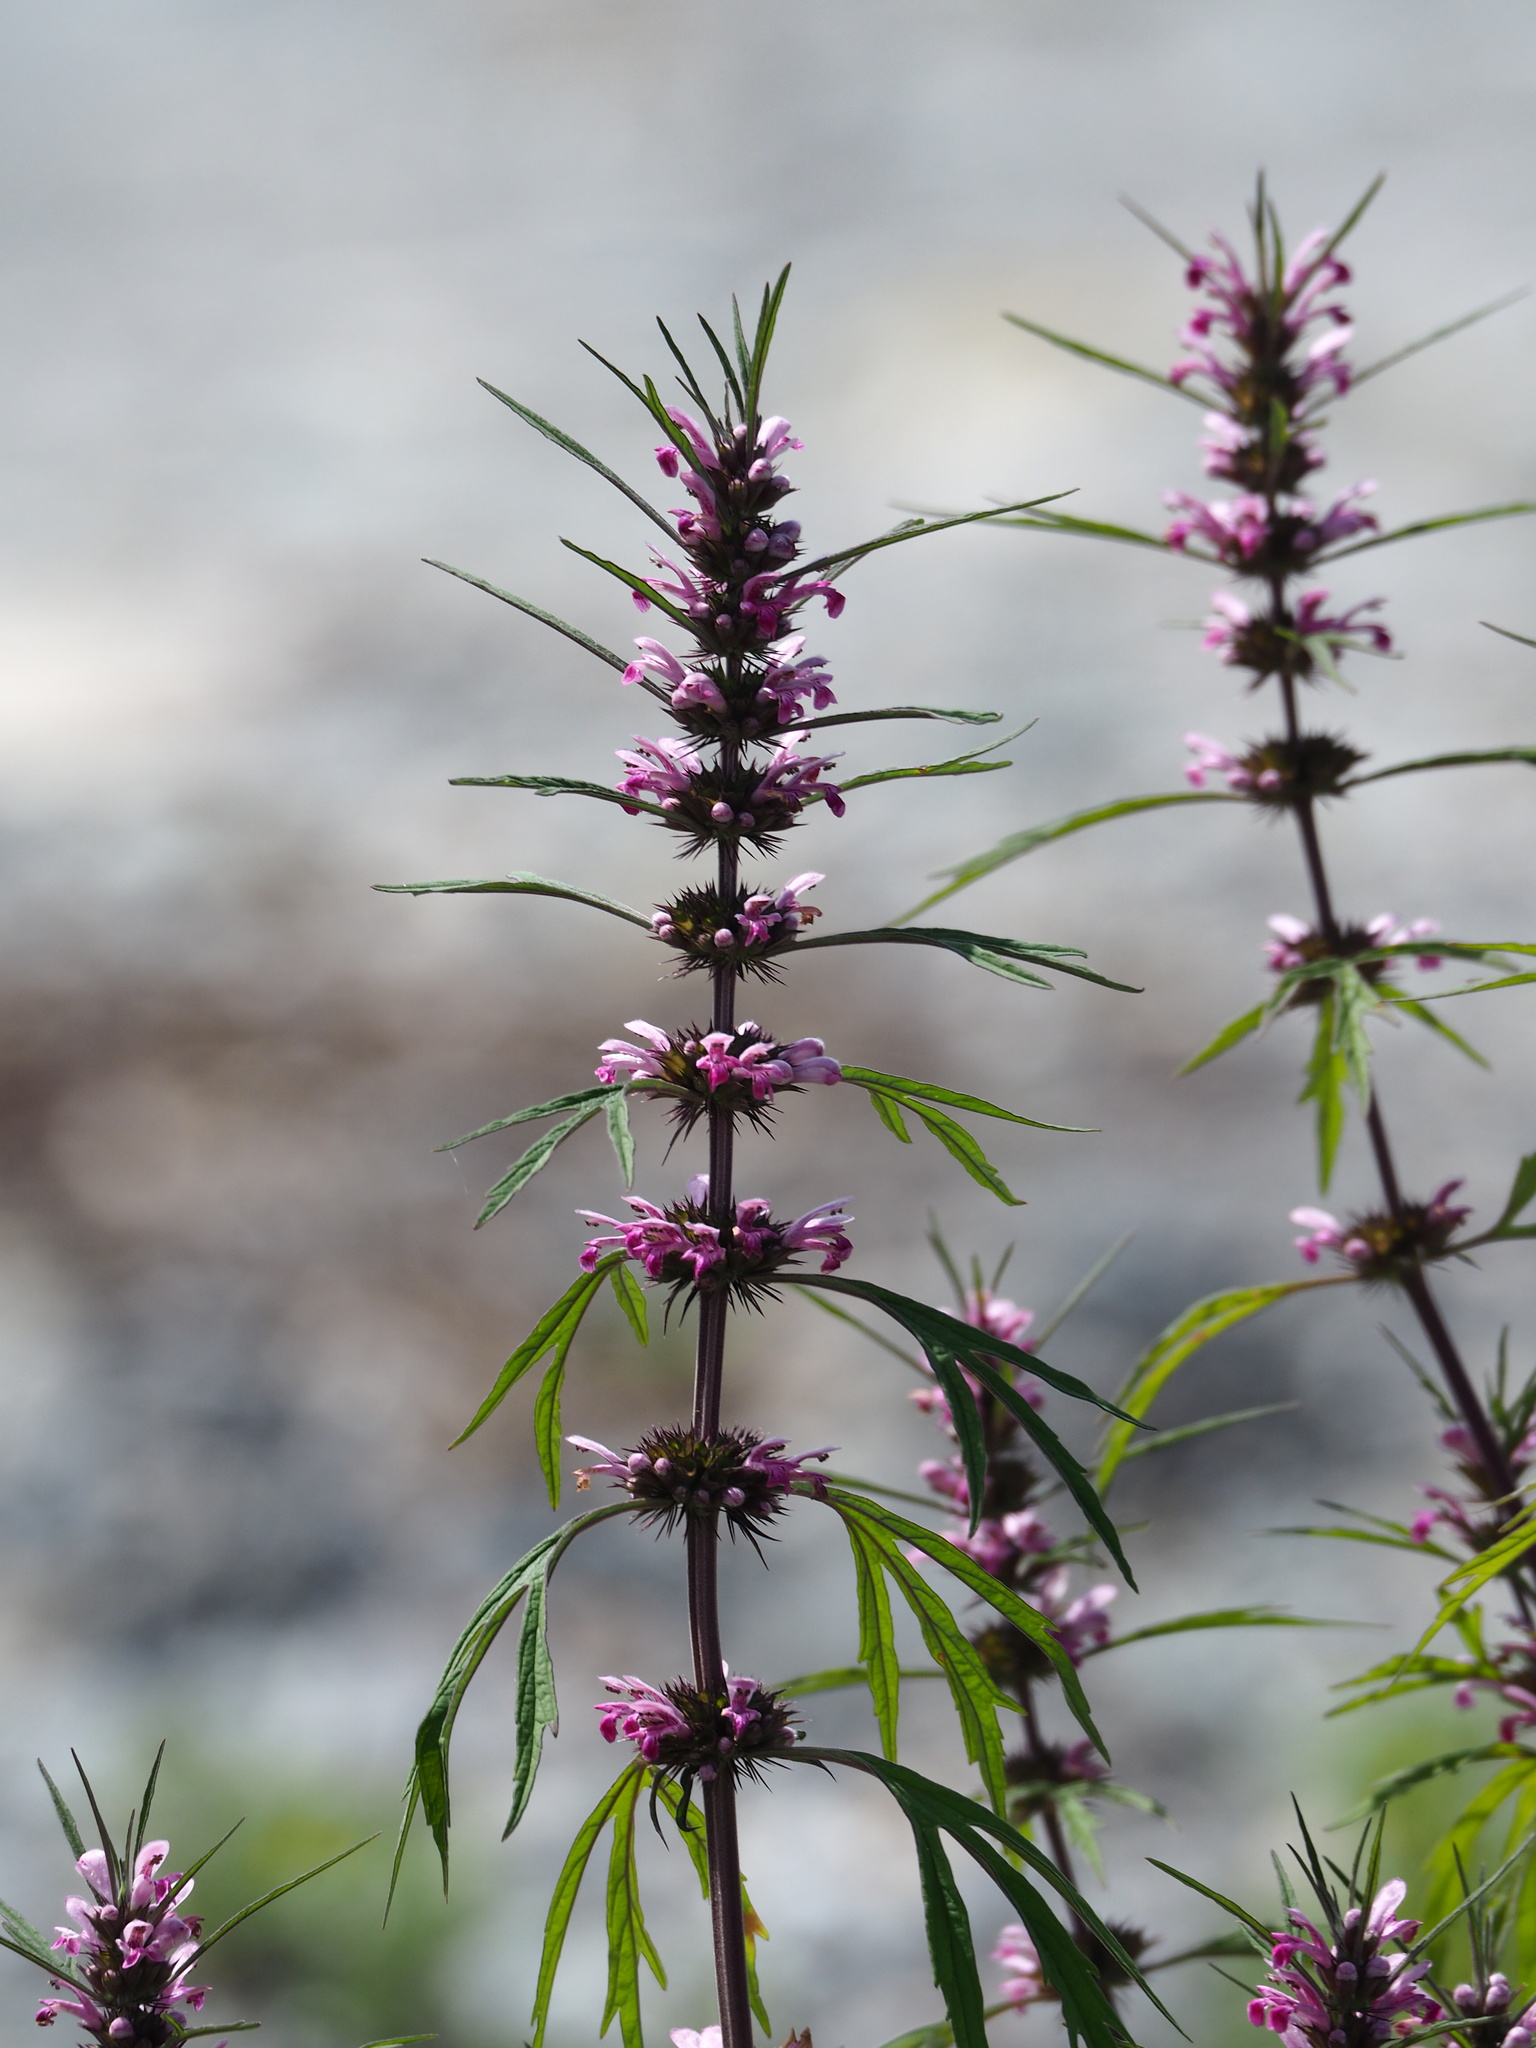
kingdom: Plantae
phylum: Tracheophyta
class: Magnoliopsida
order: Lamiales
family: Lamiaceae
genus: Leonurus
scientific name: Leonurus japonicus
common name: Honeyweed
